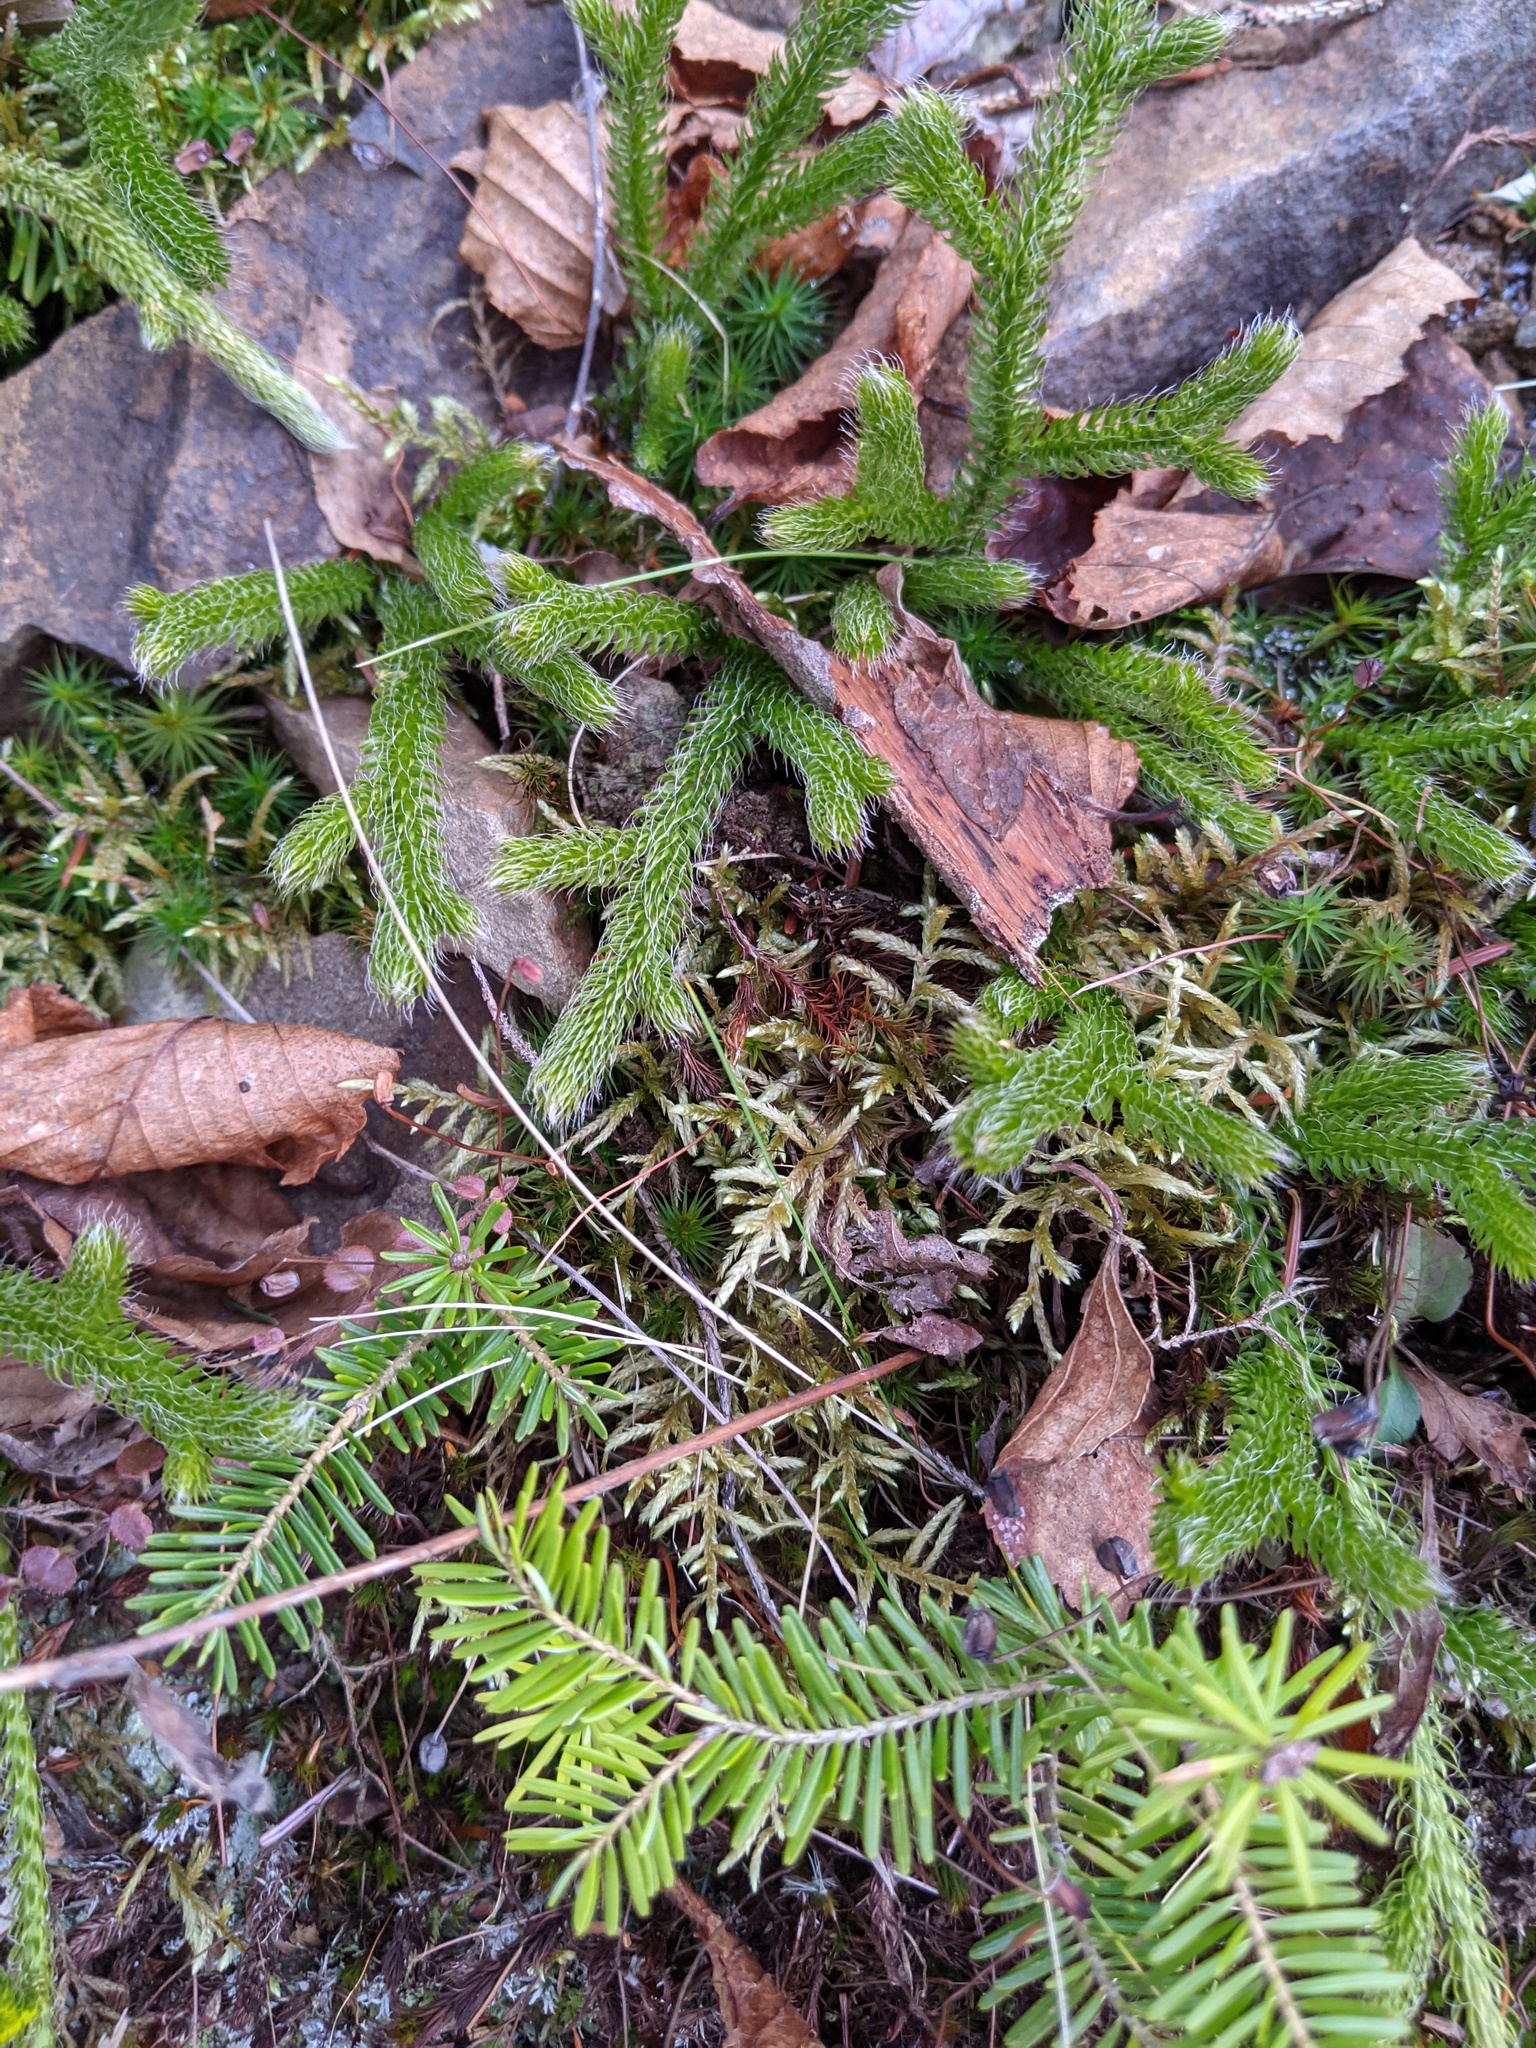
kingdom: Plantae
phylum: Tracheophyta
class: Lycopodiopsida
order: Lycopodiales
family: Lycopodiaceae
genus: Lycopodium
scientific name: Lycopodium lagopus
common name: One-cone clubmoss
